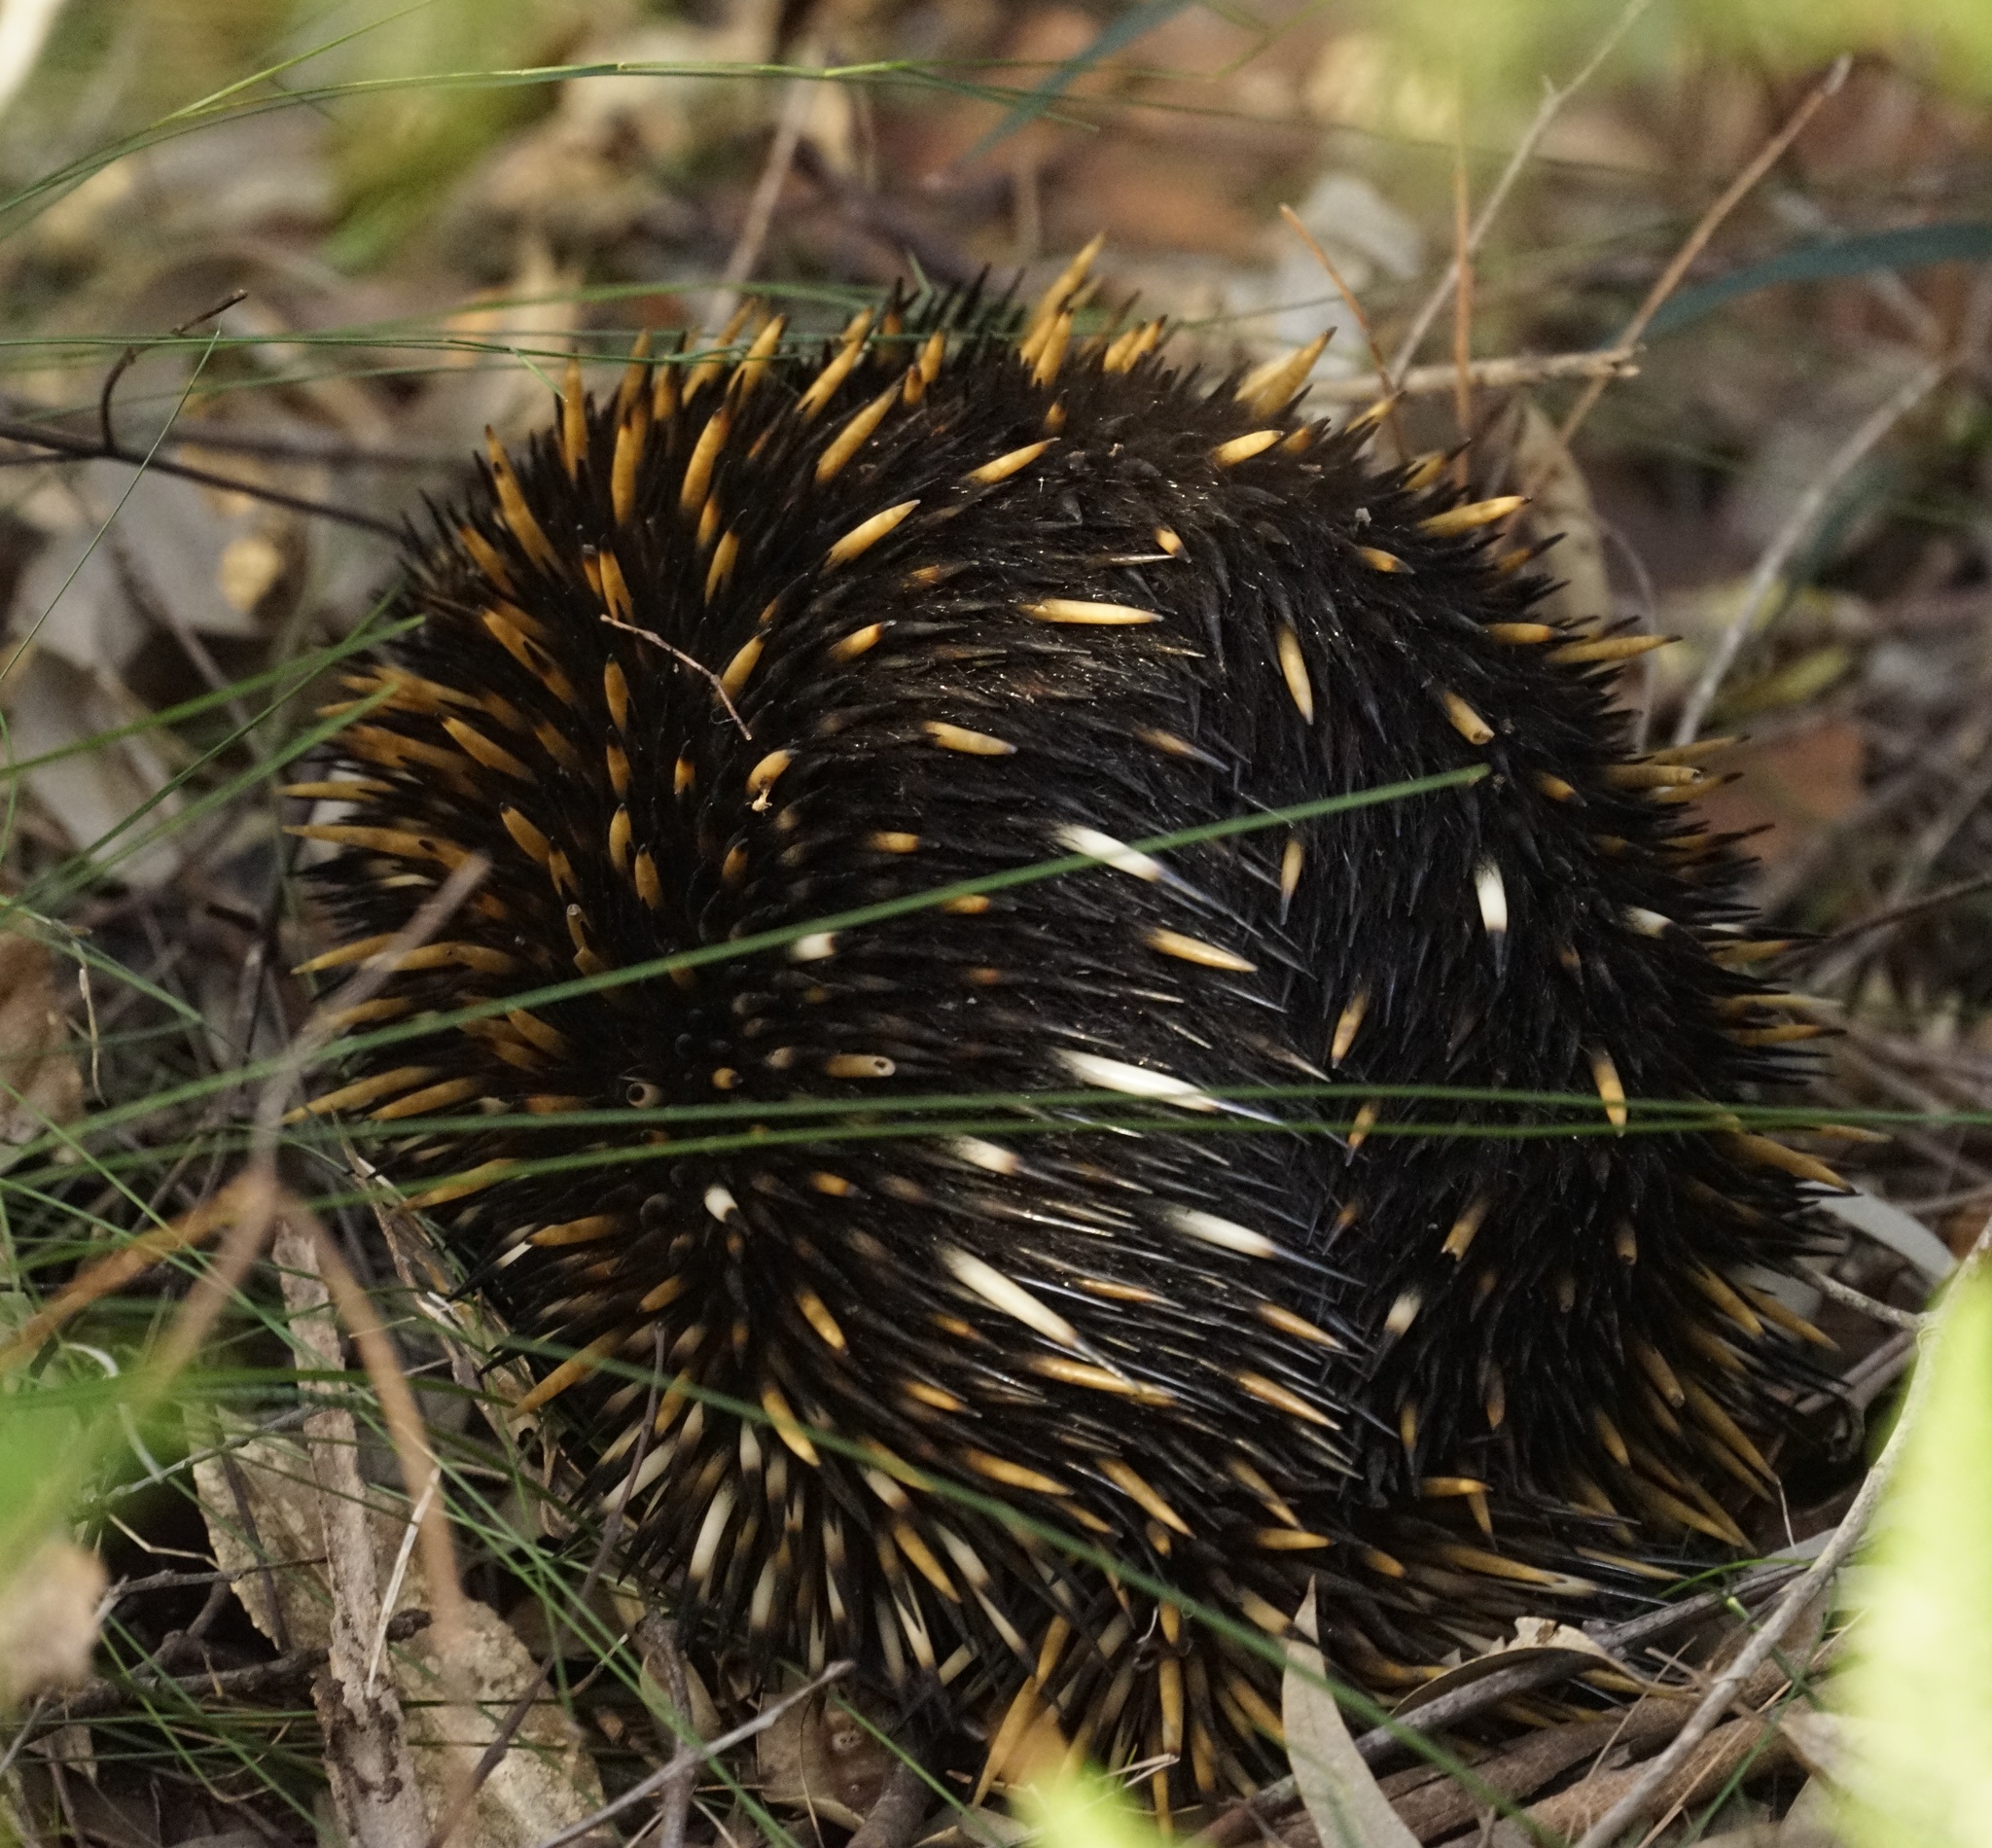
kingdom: Animalia
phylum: Chordata
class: Mammalia
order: Monotremata
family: Tachyglossidae
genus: Tachyglossus
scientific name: Tachyglossus aculeatus
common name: Short-beaked echidna
